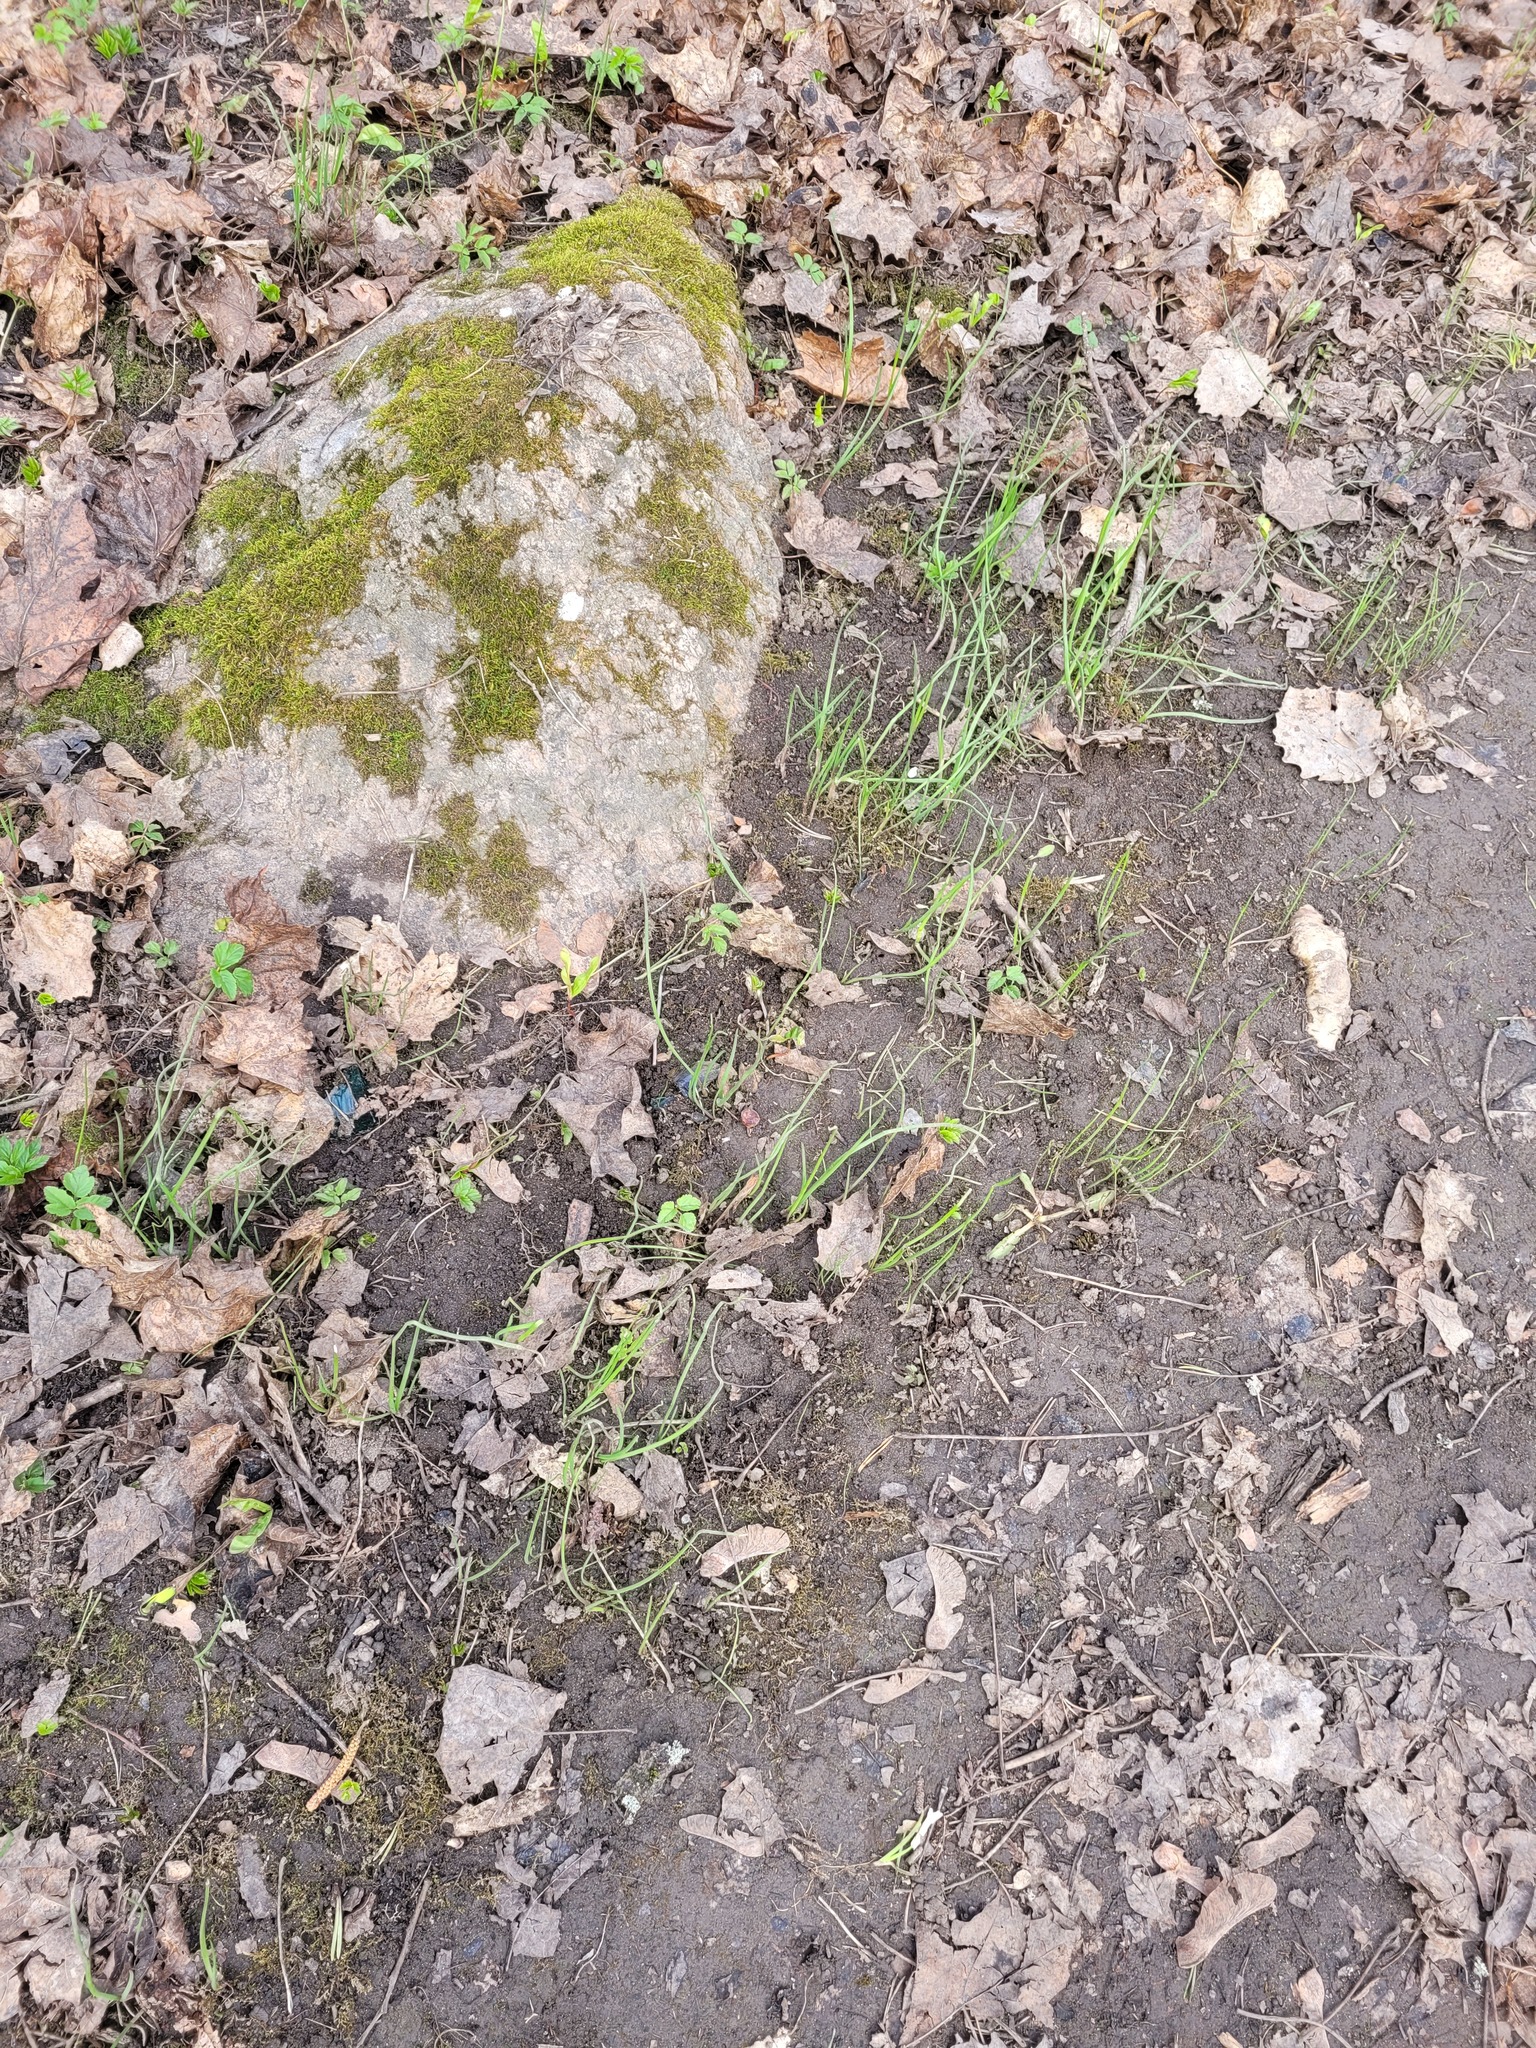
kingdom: Plantae
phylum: Tracheophyta
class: Liliopsida
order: Asparagales
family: Amaryllidaceae
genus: Allium
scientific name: Allium oleraceum
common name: Field garlic
